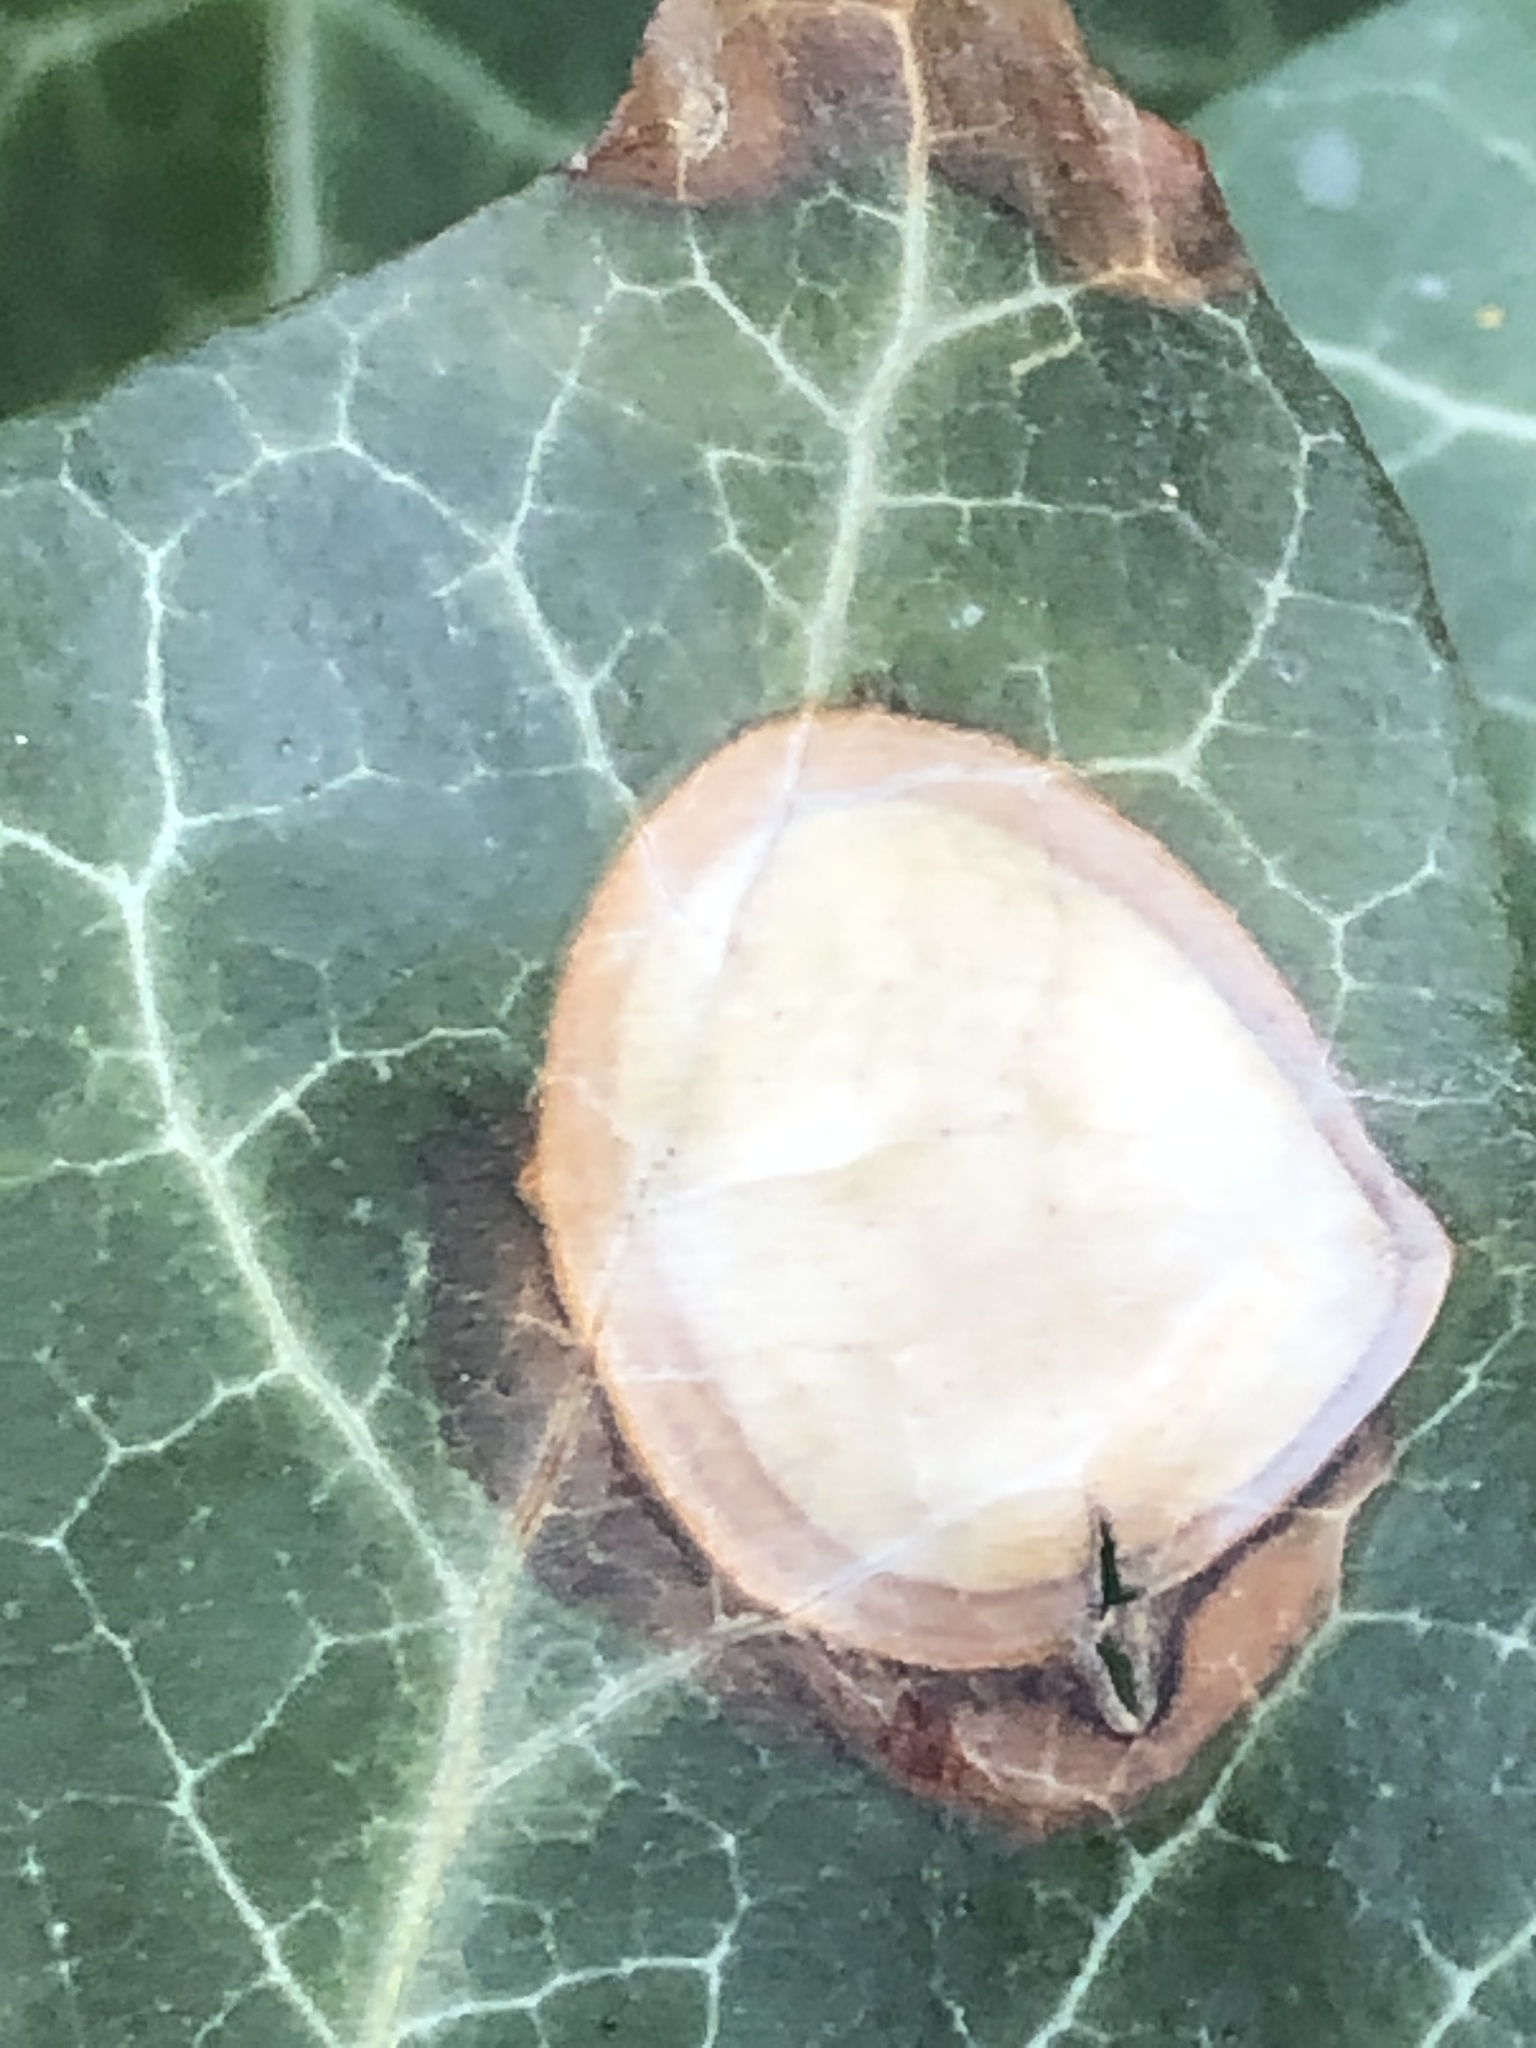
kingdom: Fungi
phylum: Ascomycota
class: Dothideomycetes
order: Pleosporales
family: Didymellaceae
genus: Boeremia
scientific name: Boeremia hedericola
